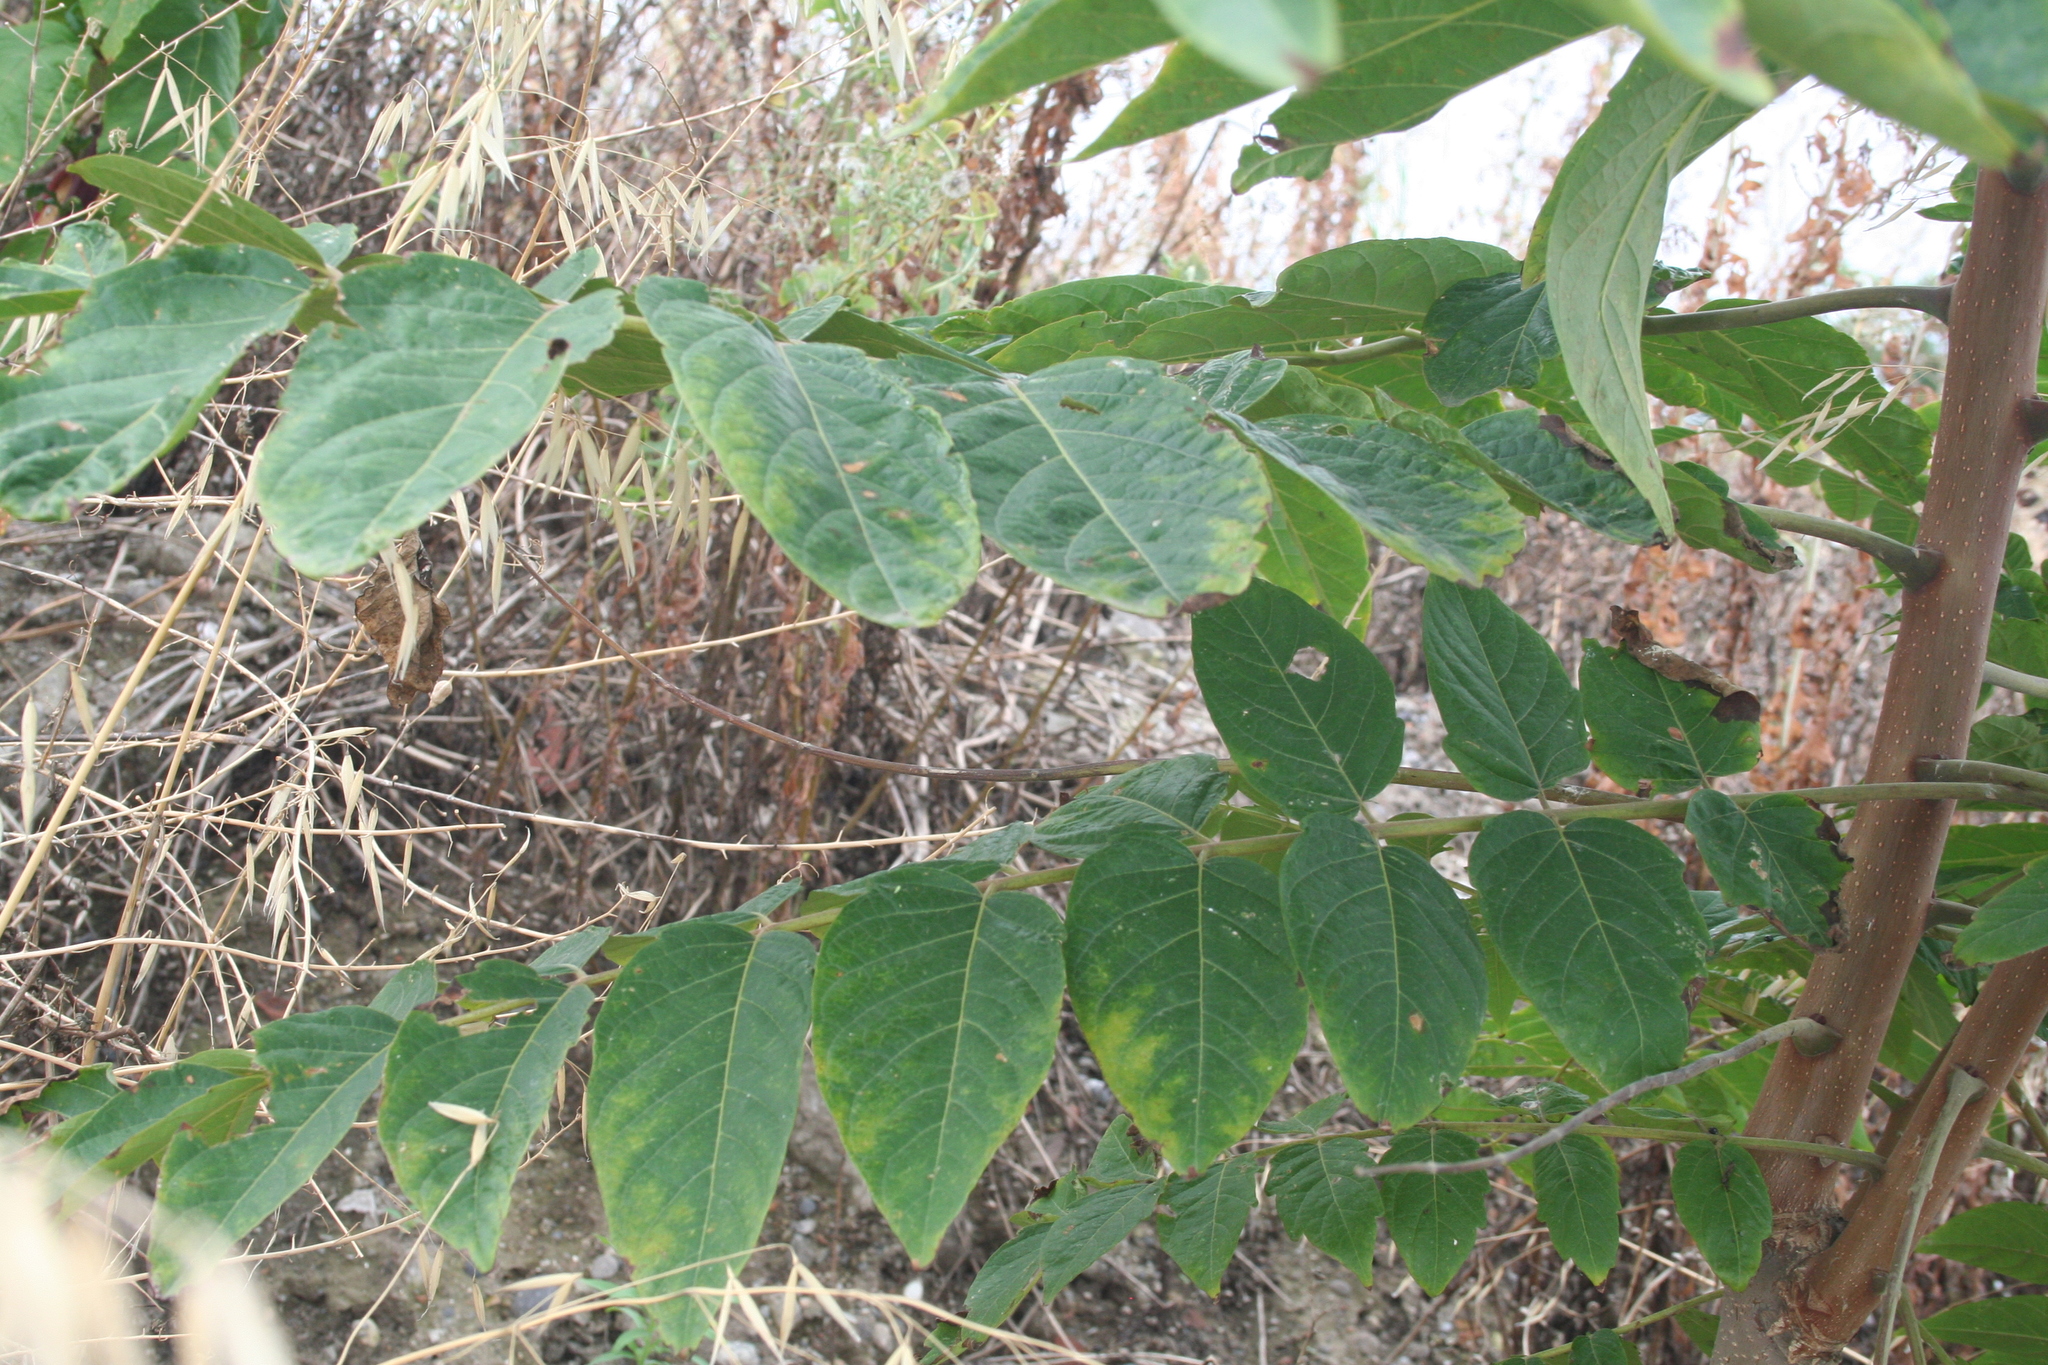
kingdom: Plantae
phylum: Tracheophyta
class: Magnoliopsida
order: Sapindales
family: Simaroubaceae
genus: Ailanthus
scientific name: Ailanthus altissima
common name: Tree-of-heaven
